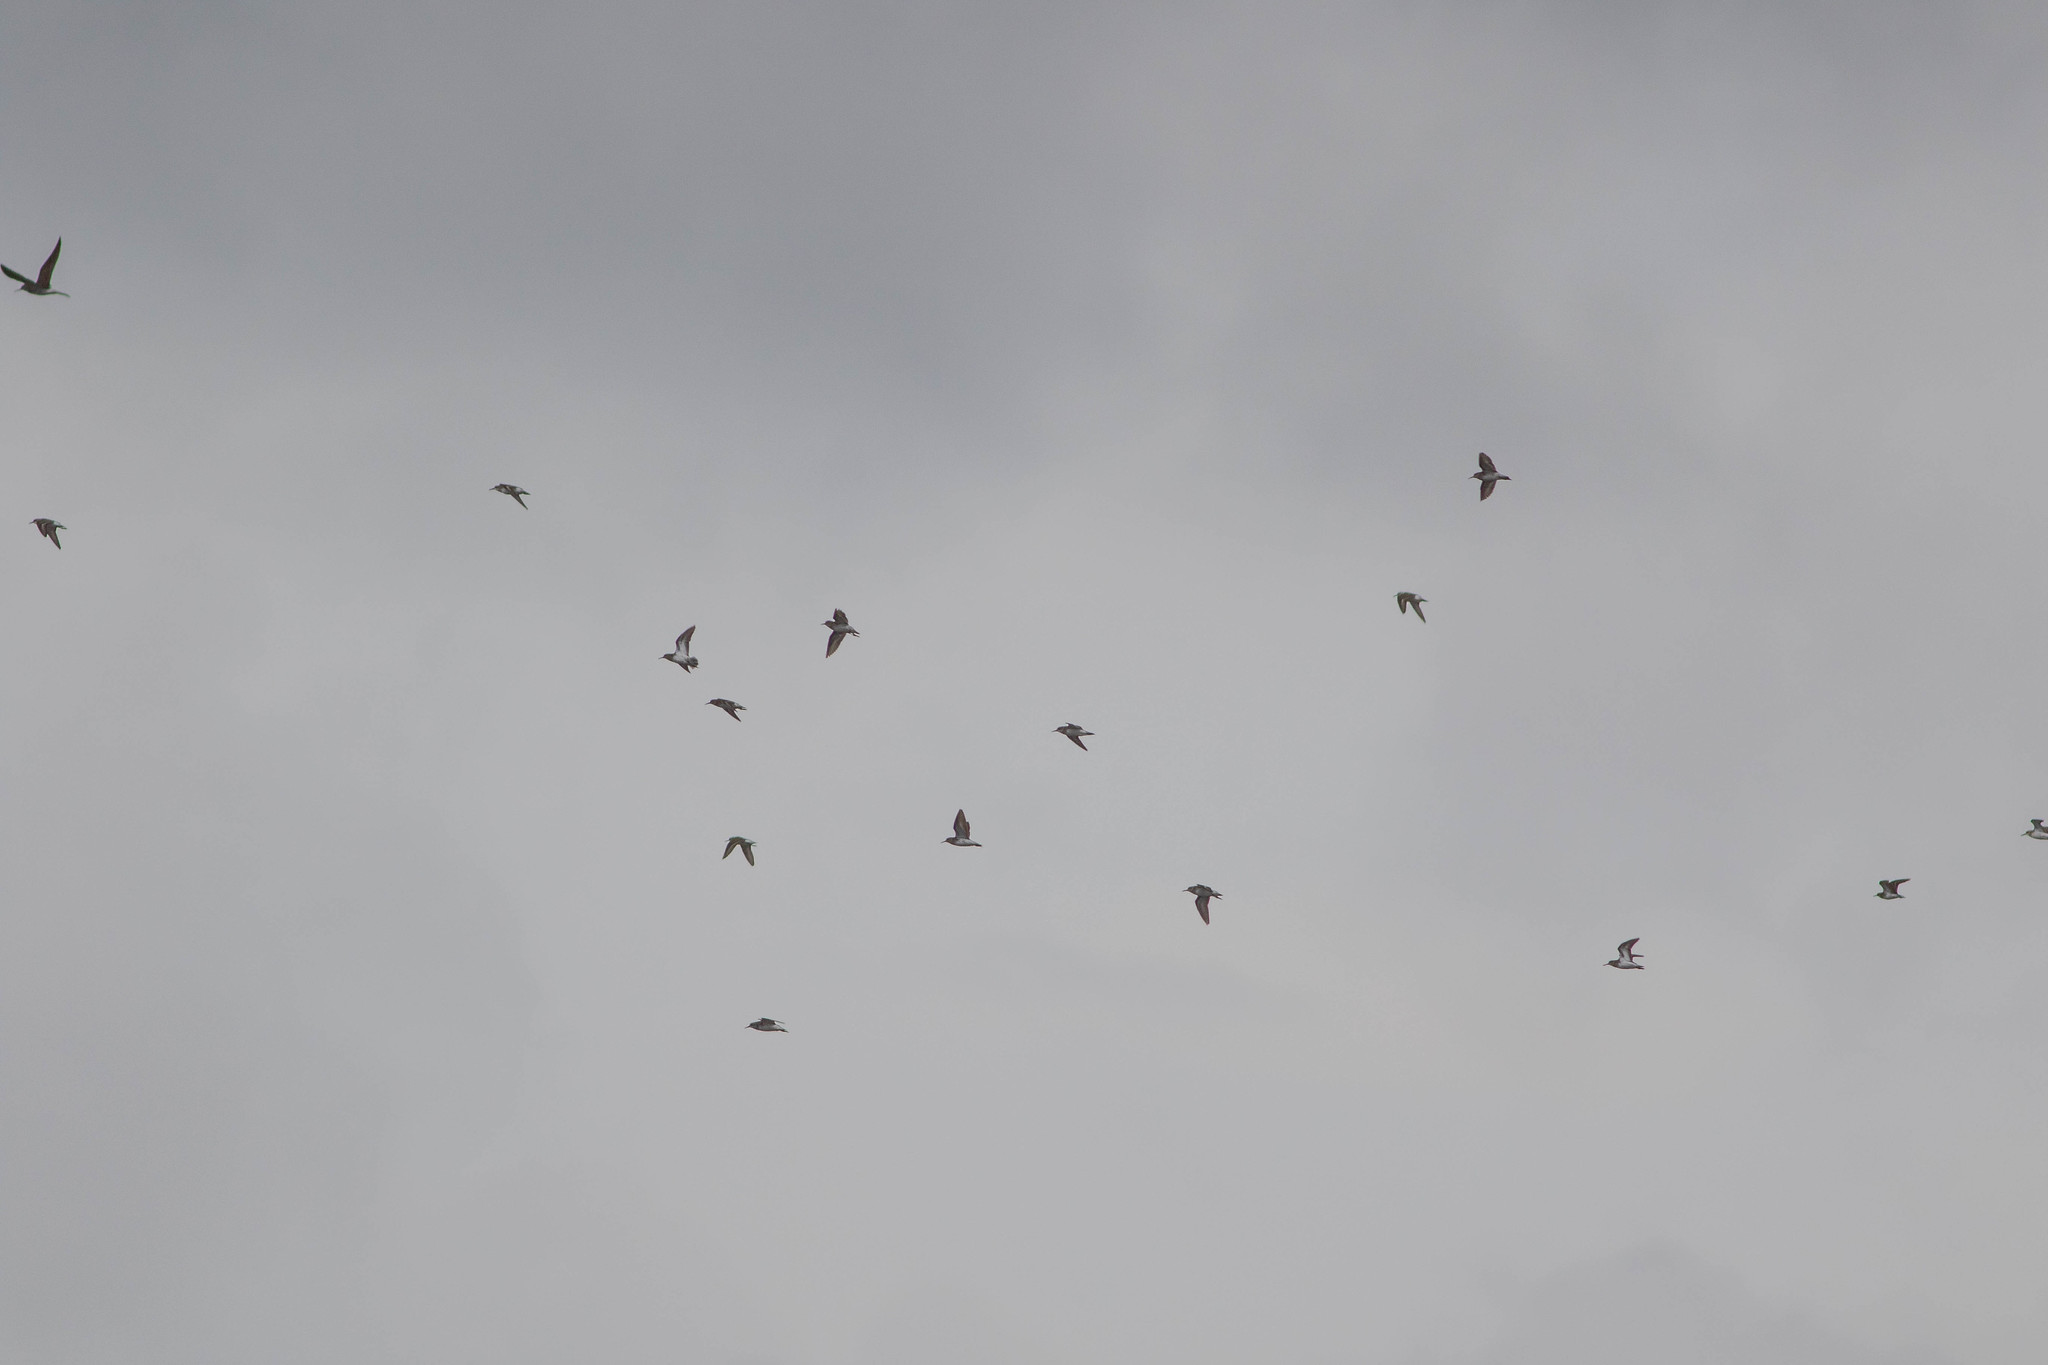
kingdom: Animalia
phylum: Chordata
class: Aves
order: Charadriiformes
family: Scolopacidae
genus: Calidris
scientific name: Calidris minutilla
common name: Least sandpiper
